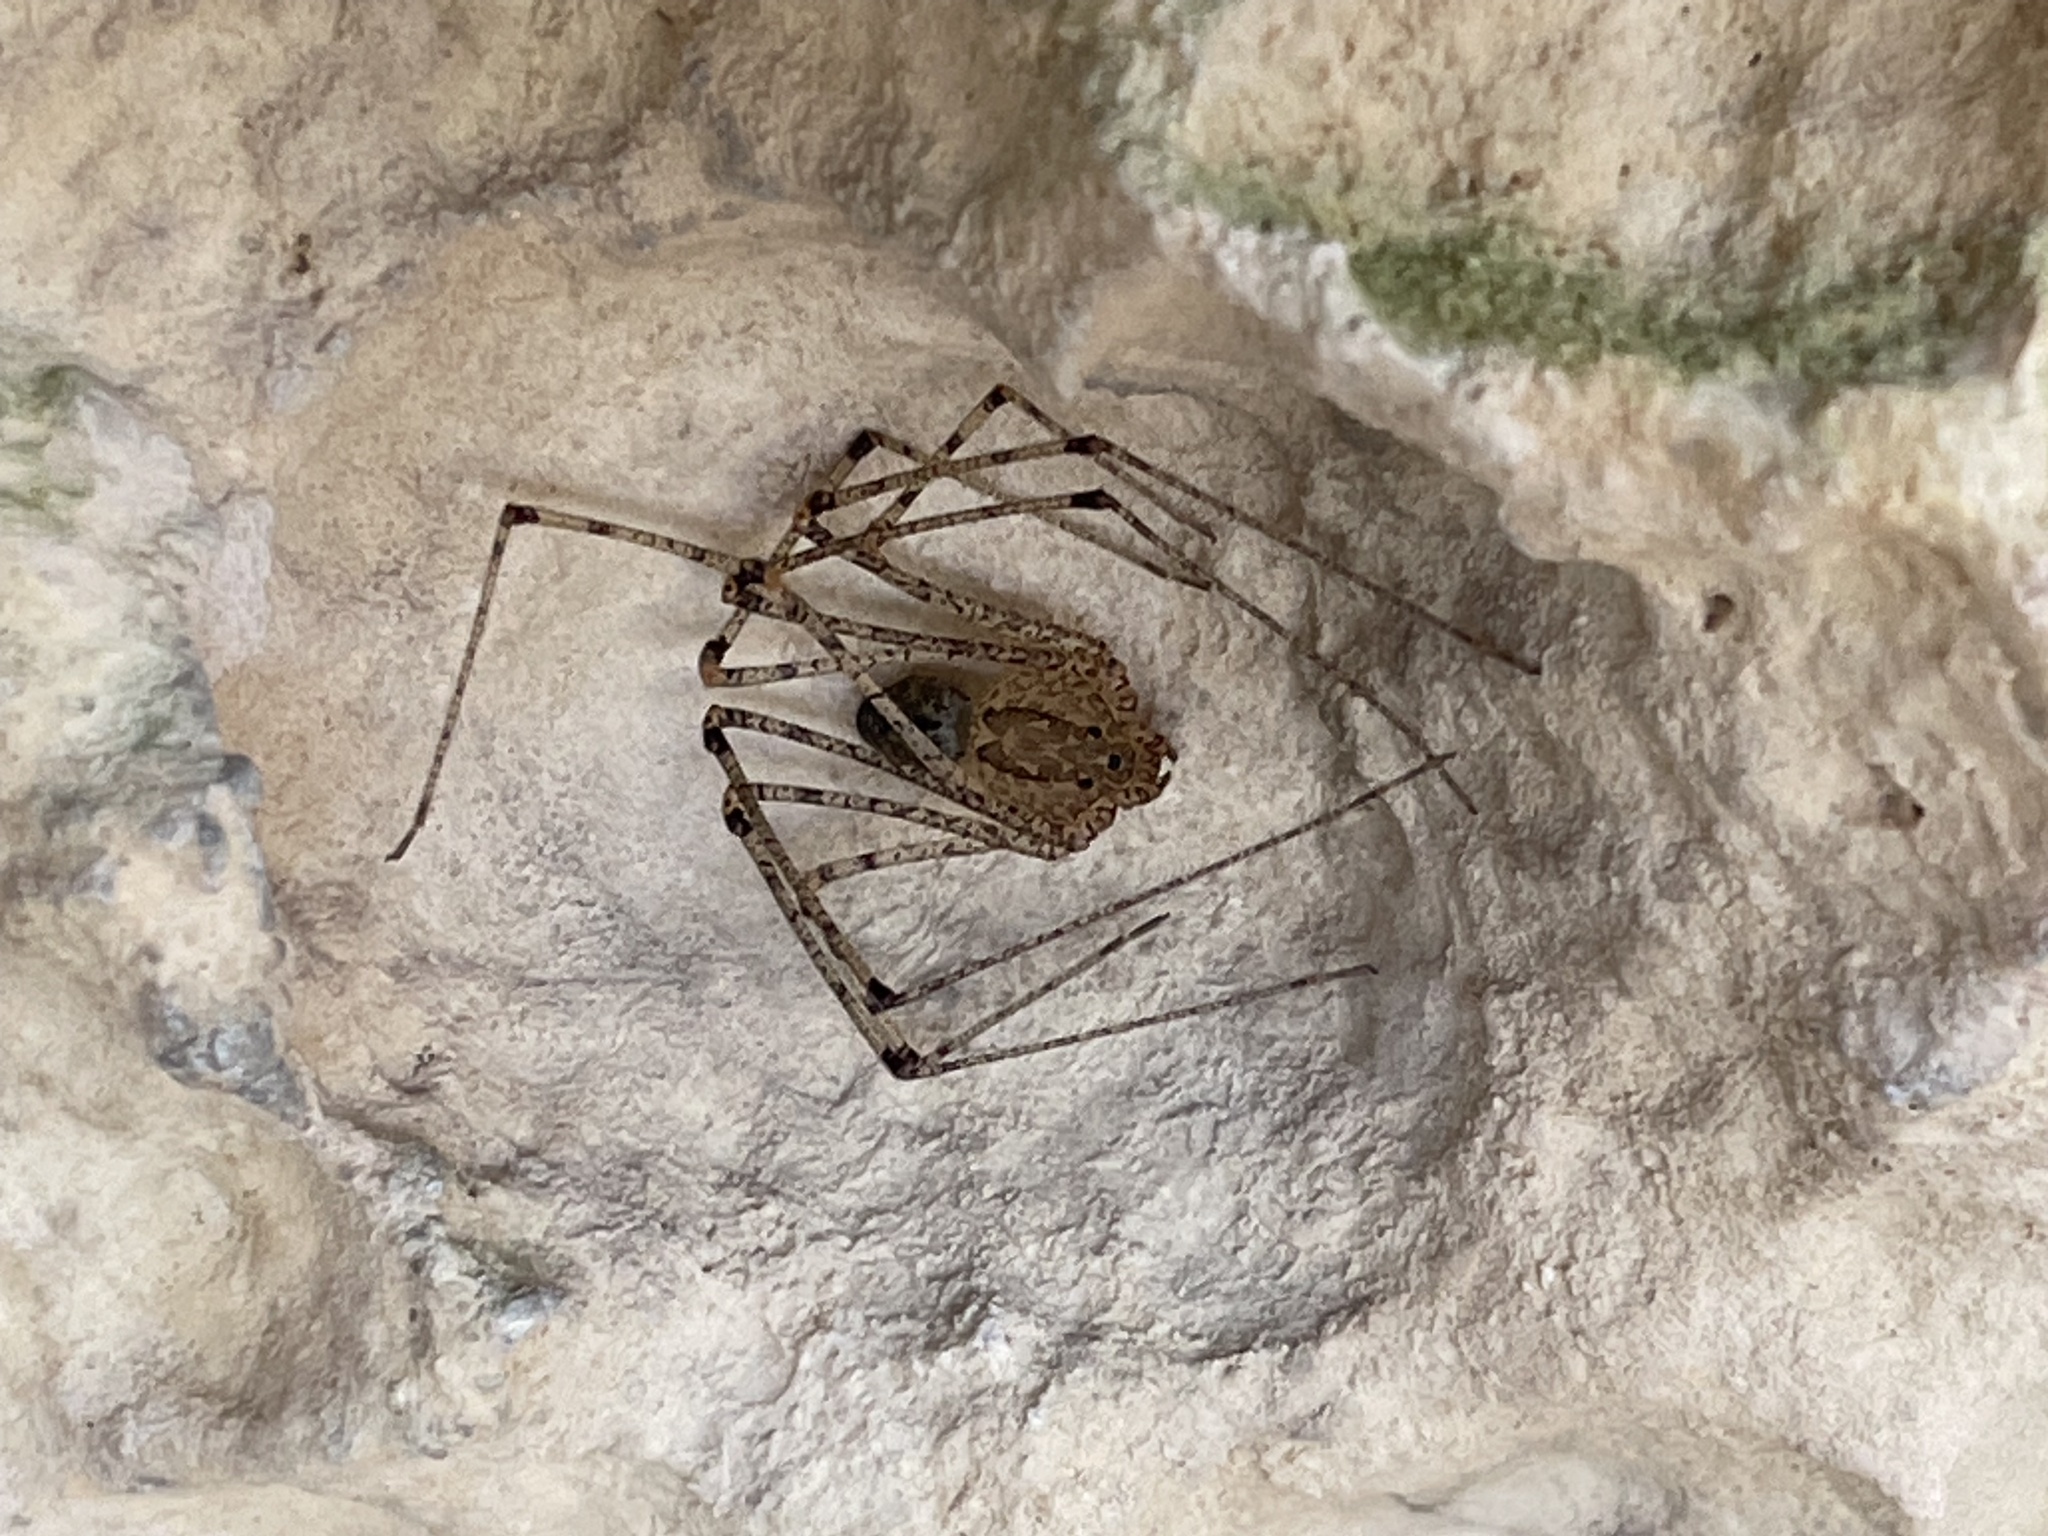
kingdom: Animalia
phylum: Arthropoda
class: Arachnida
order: Araneae
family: Scytodidae
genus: Scytodes
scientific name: Scytodes atlacoya
